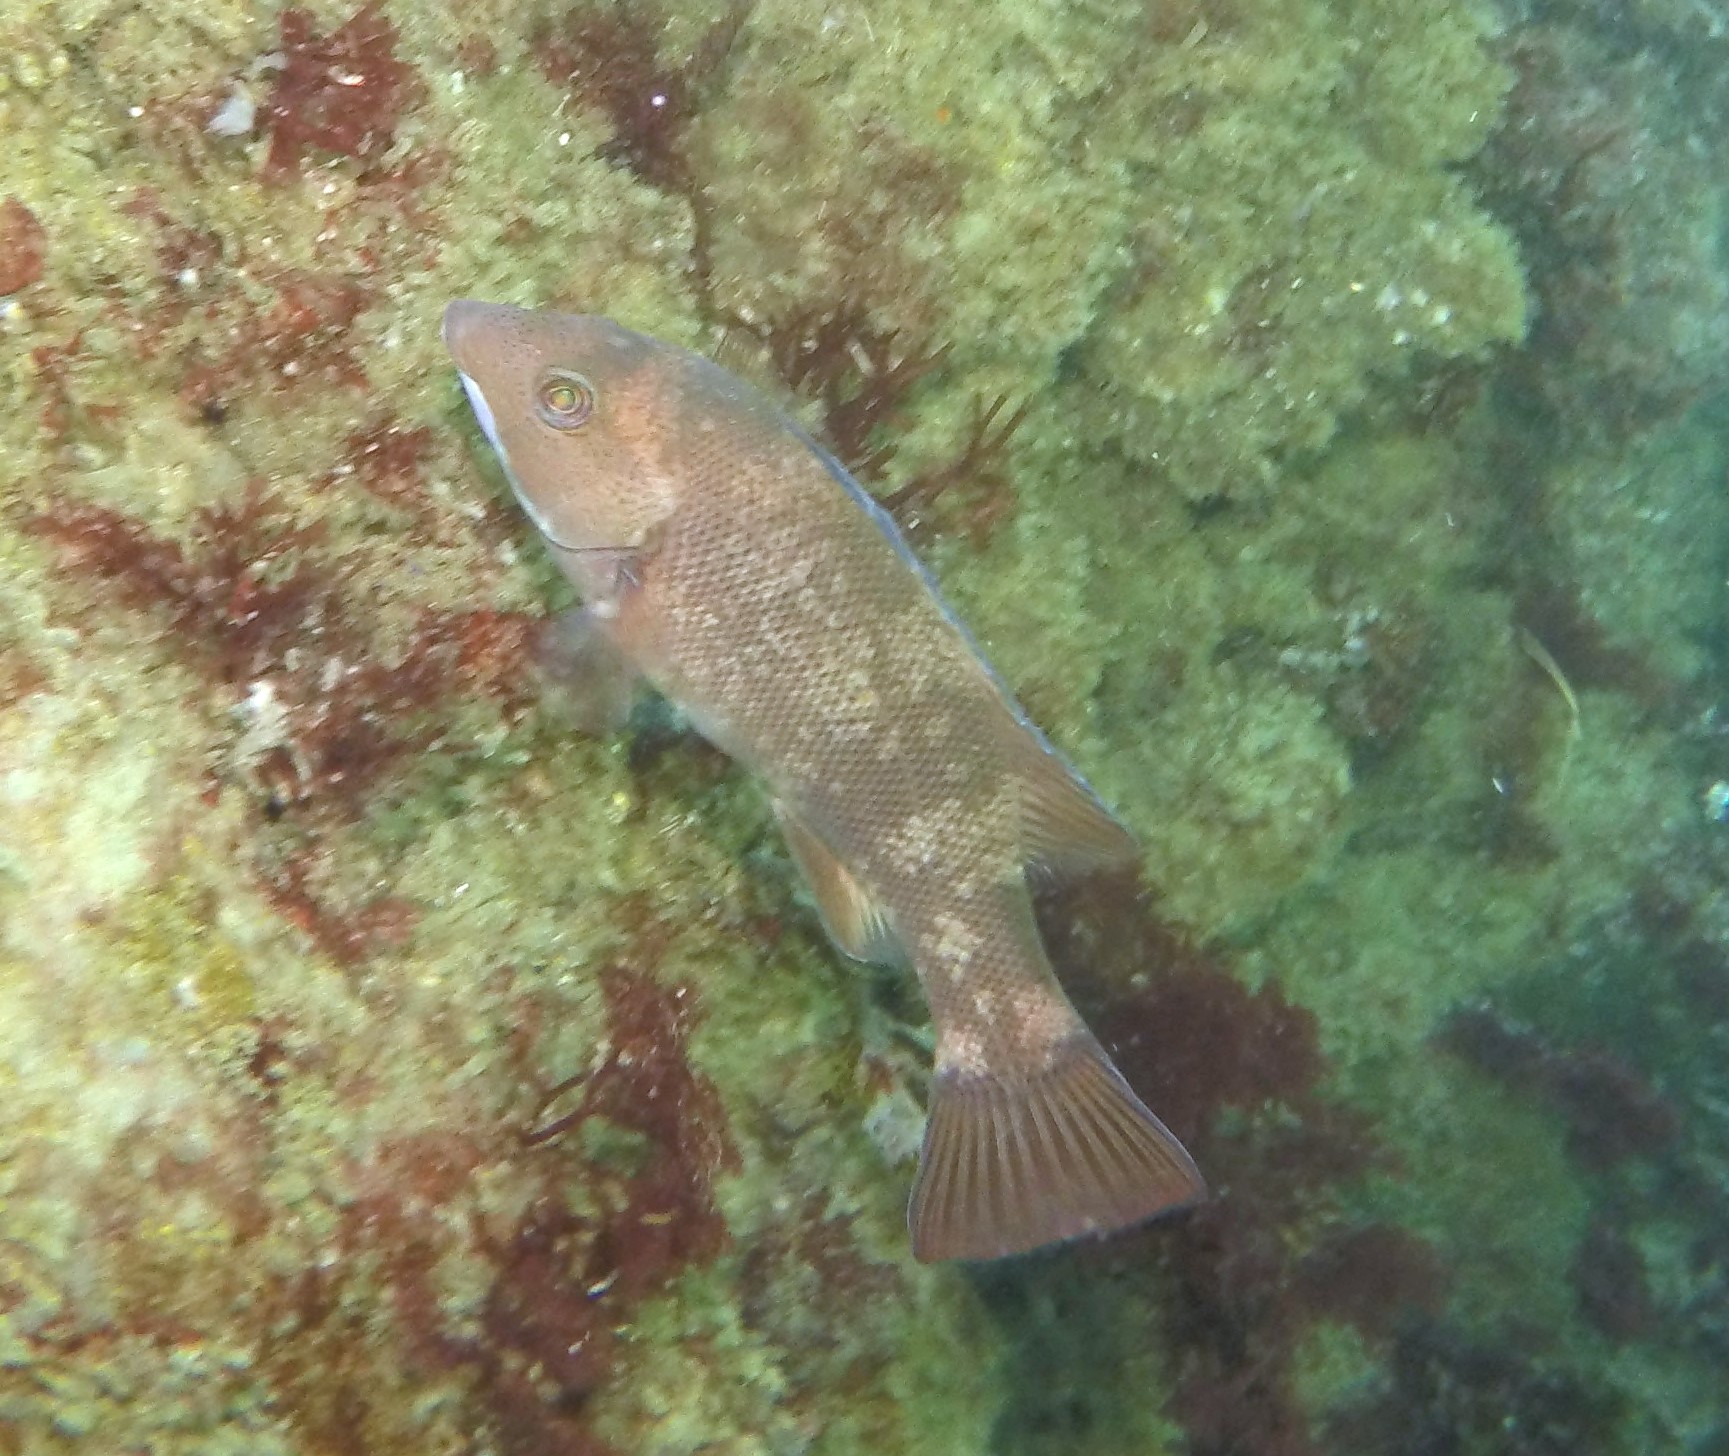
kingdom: Animalia
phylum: Chordata
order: Perciformes
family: Labridae
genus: Semicossyphus
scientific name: Semicossyphus pulcher
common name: California sheephead
